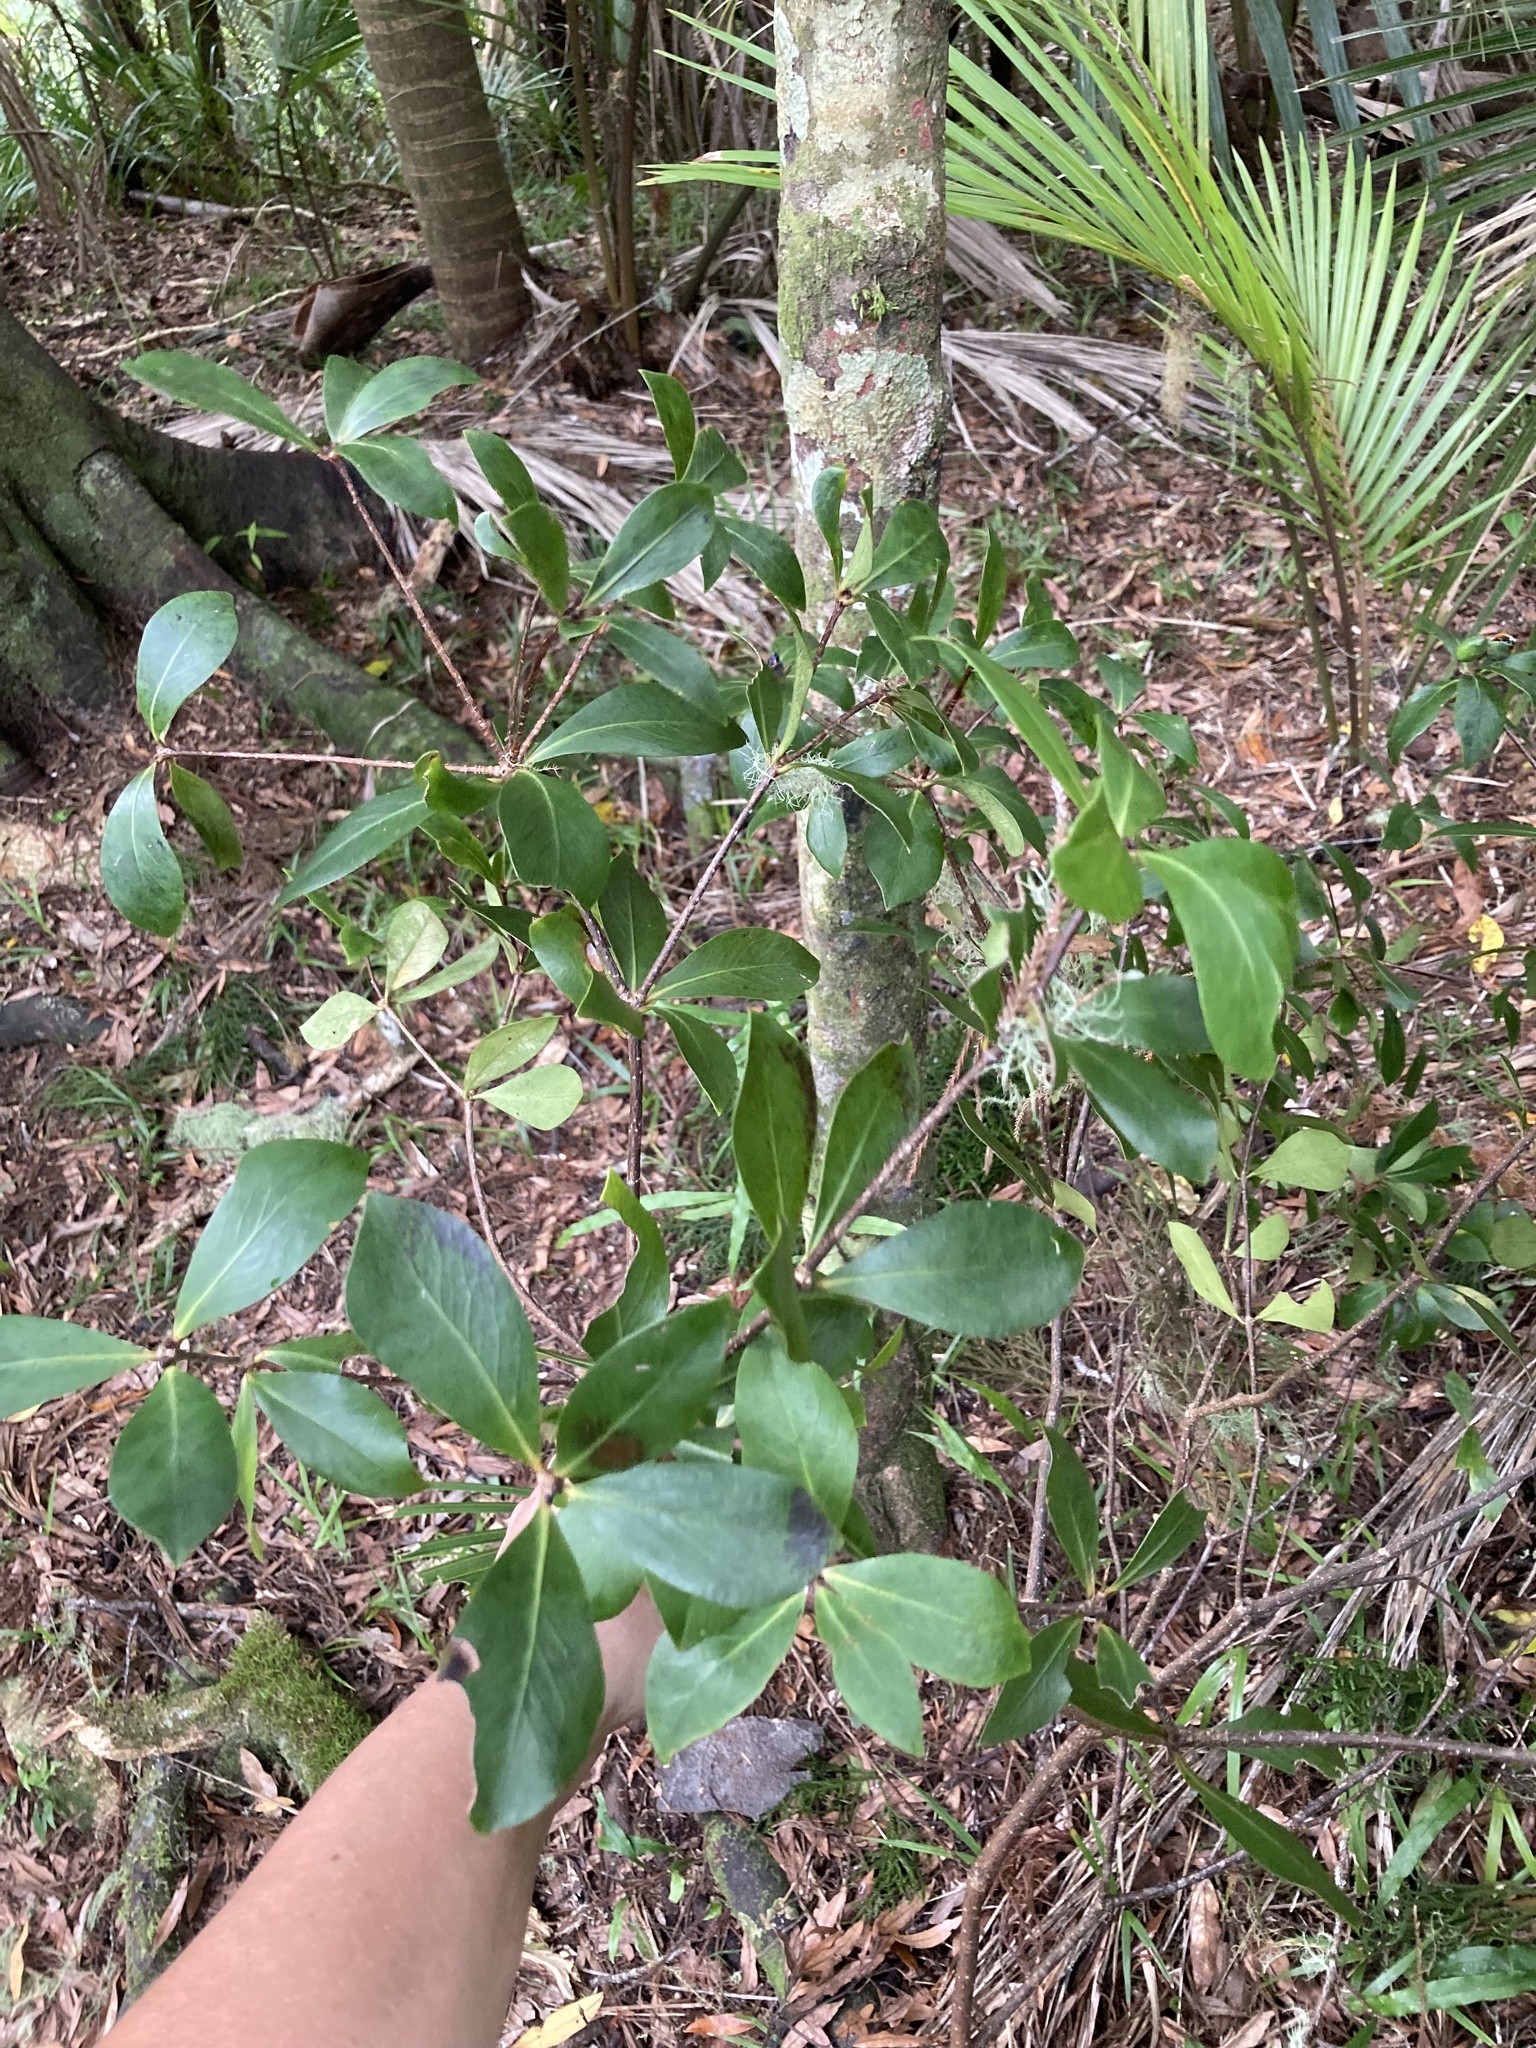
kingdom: Plantae
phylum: Tracheophyta
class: Magnoliopsida
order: Apiales
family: Pittosporaceae
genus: Pittosporum
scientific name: Pittosporum cornifolium
